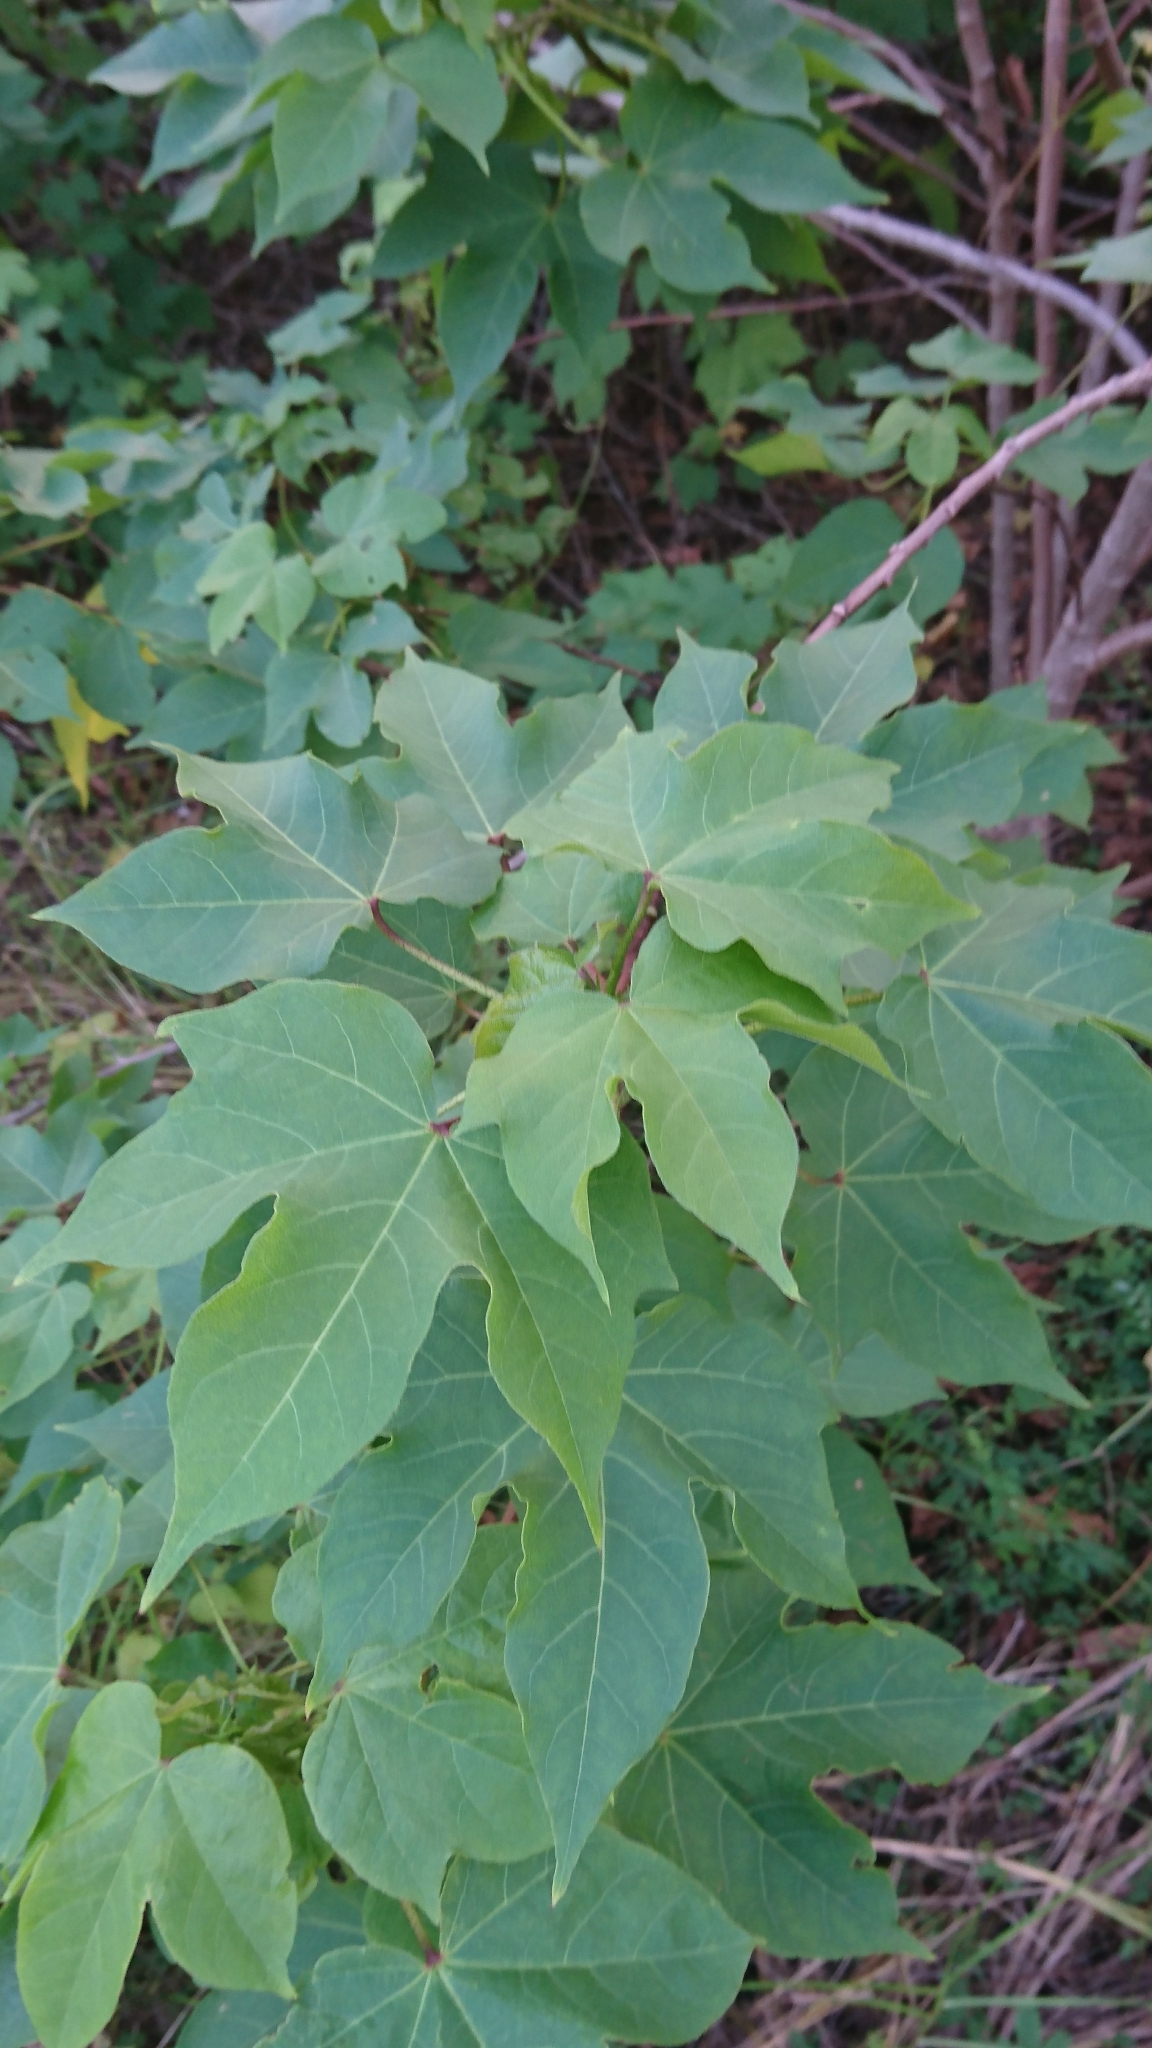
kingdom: Plantae
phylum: Tracheophyta
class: Magnoliopsida
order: Malvales
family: Malvaceae
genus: Gossypium
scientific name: Gossypium hirsutum
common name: Cotton
